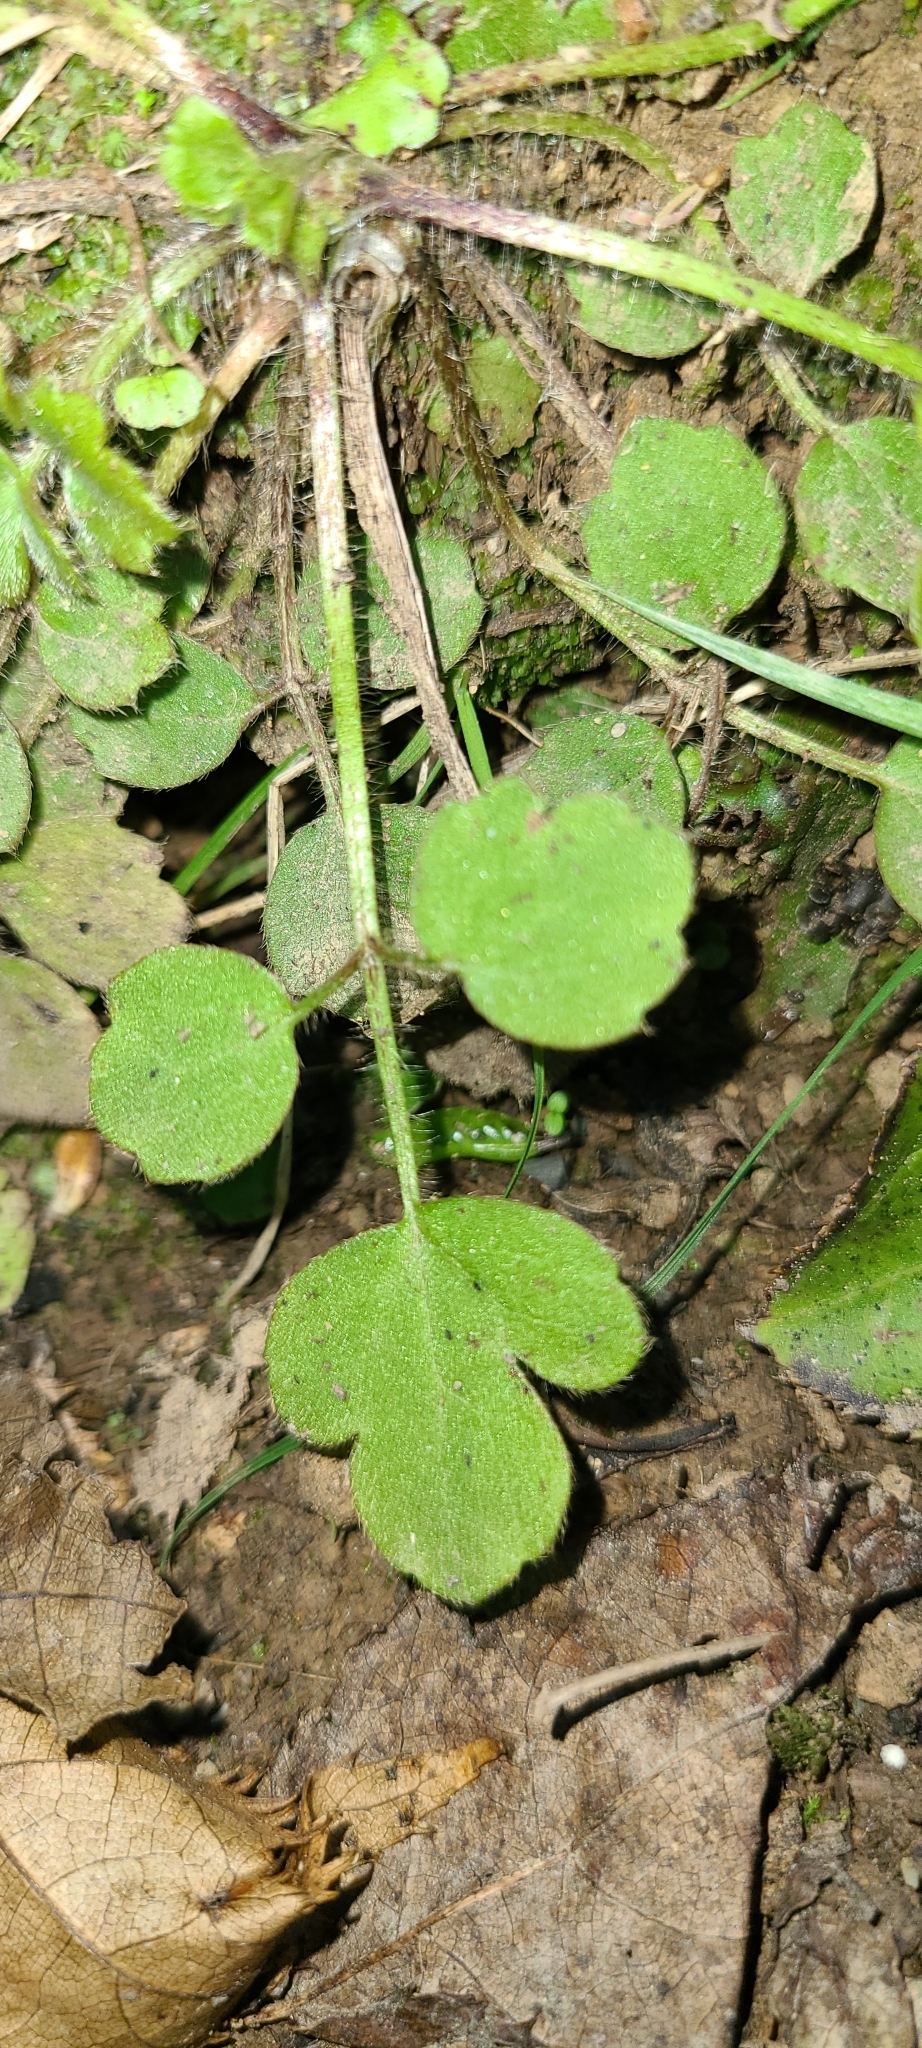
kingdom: Plantae
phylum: Tracheophyta
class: Magnoliopsida
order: Ranunculales
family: Ranunculaceae
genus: Ranunculus
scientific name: Ranunculus reflexus
